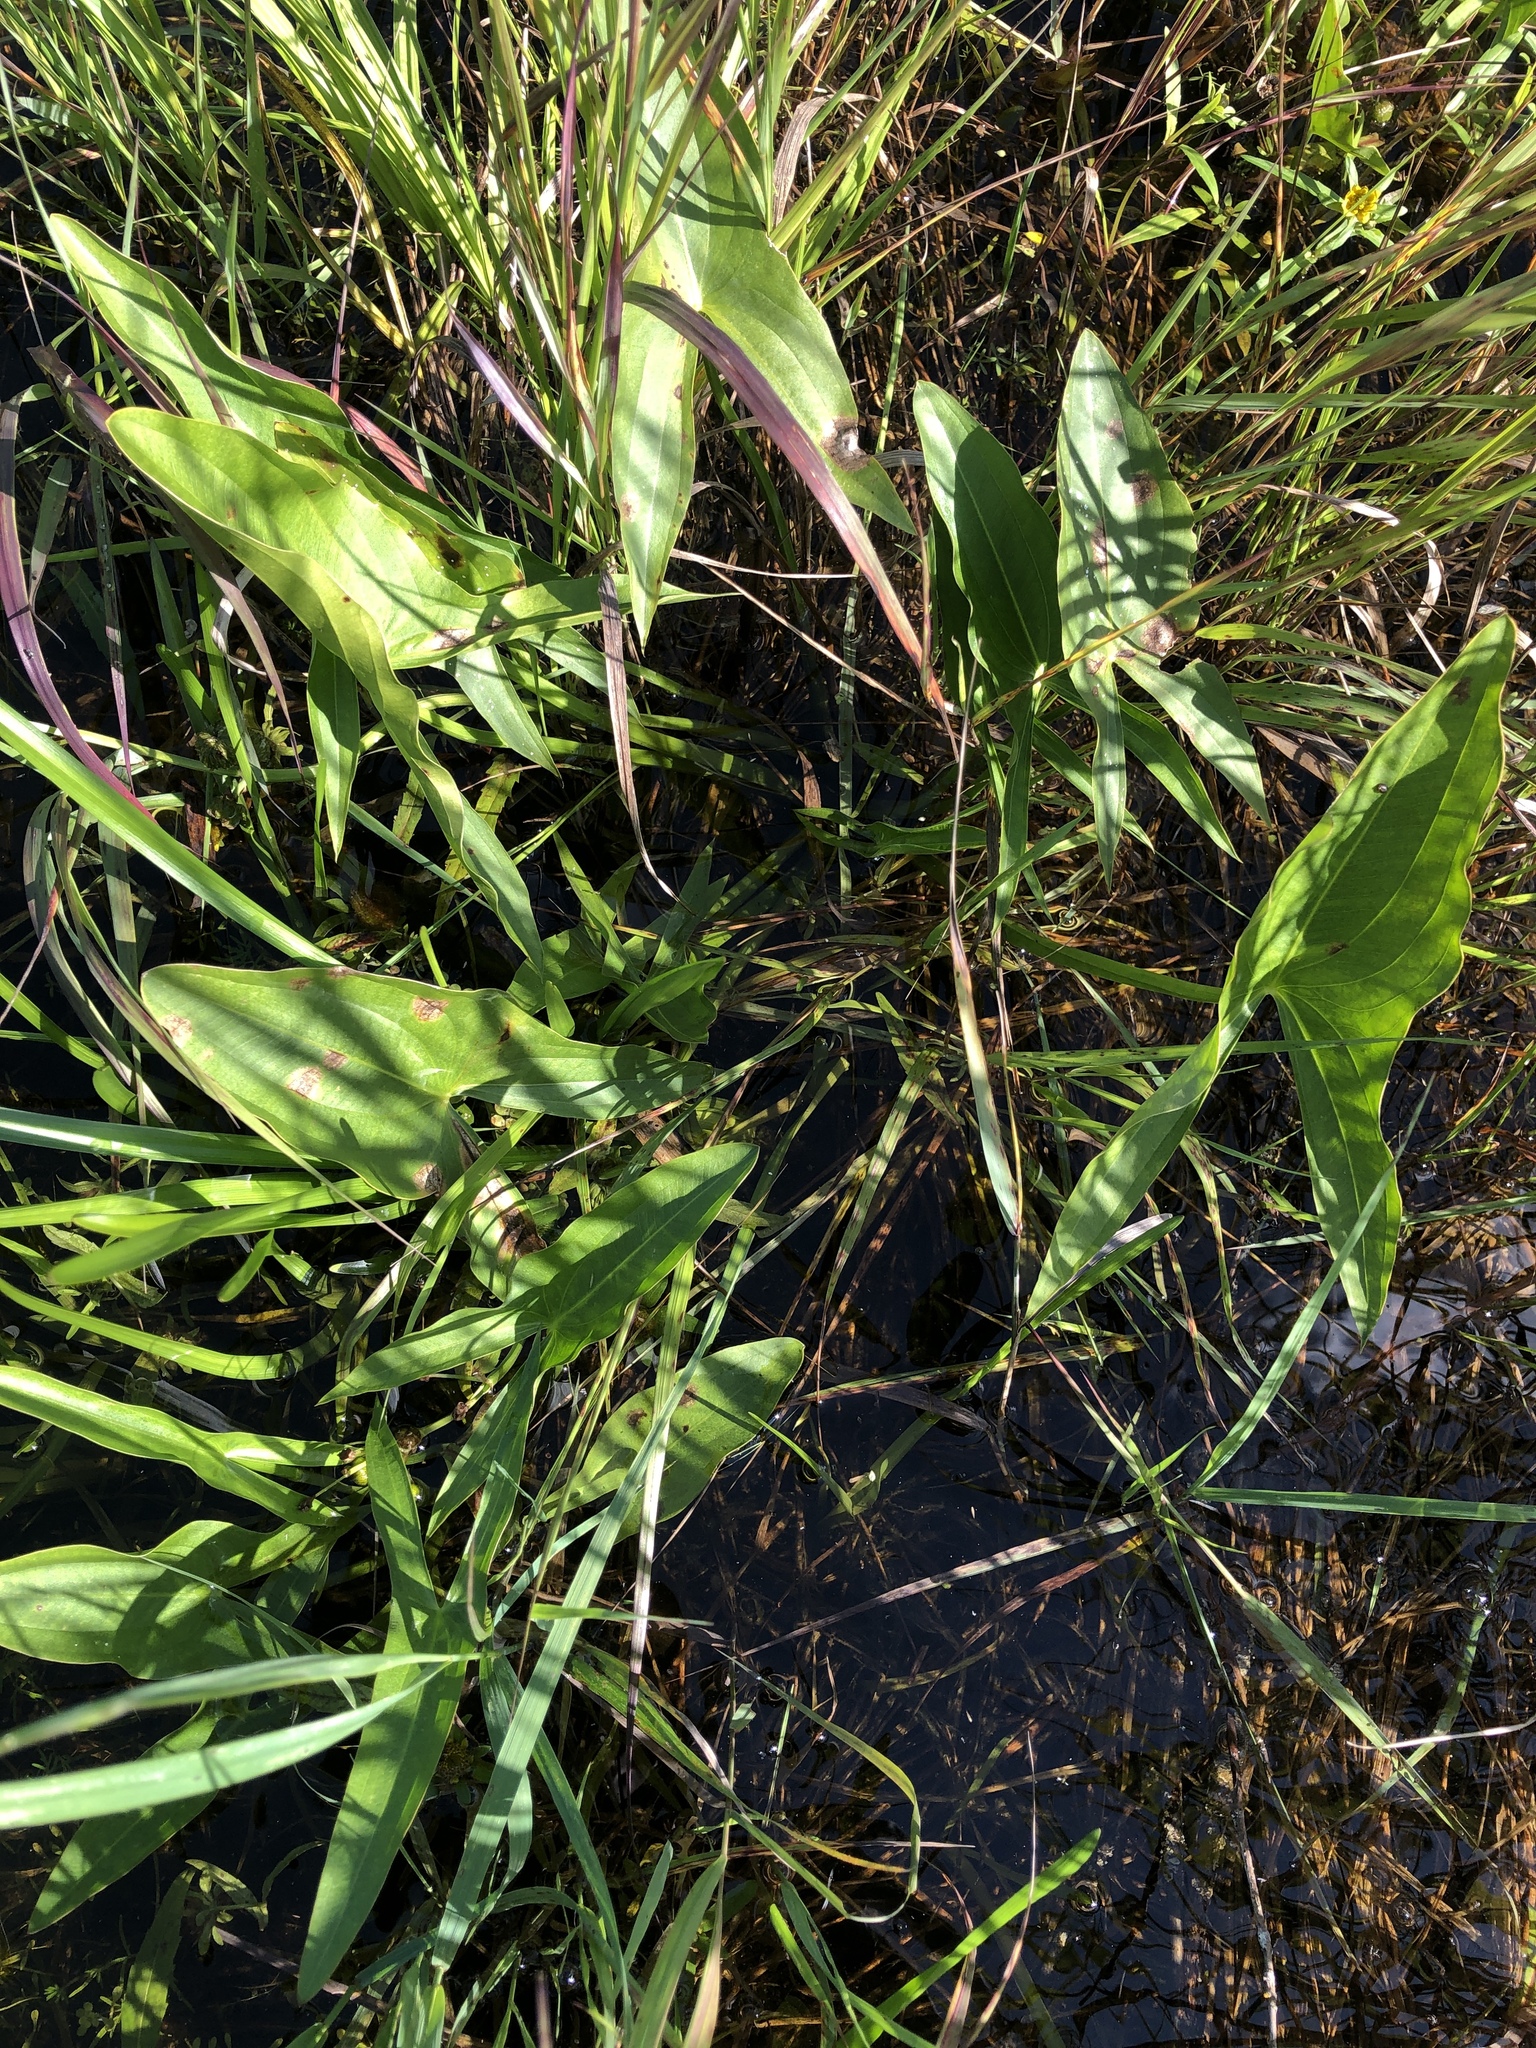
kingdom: Plantae
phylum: Tracheophyta
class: Liliopsida
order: Alismatales
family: Alismataceae
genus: Sagittaria
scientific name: Sagittaria latifolia
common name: Duck-potato
